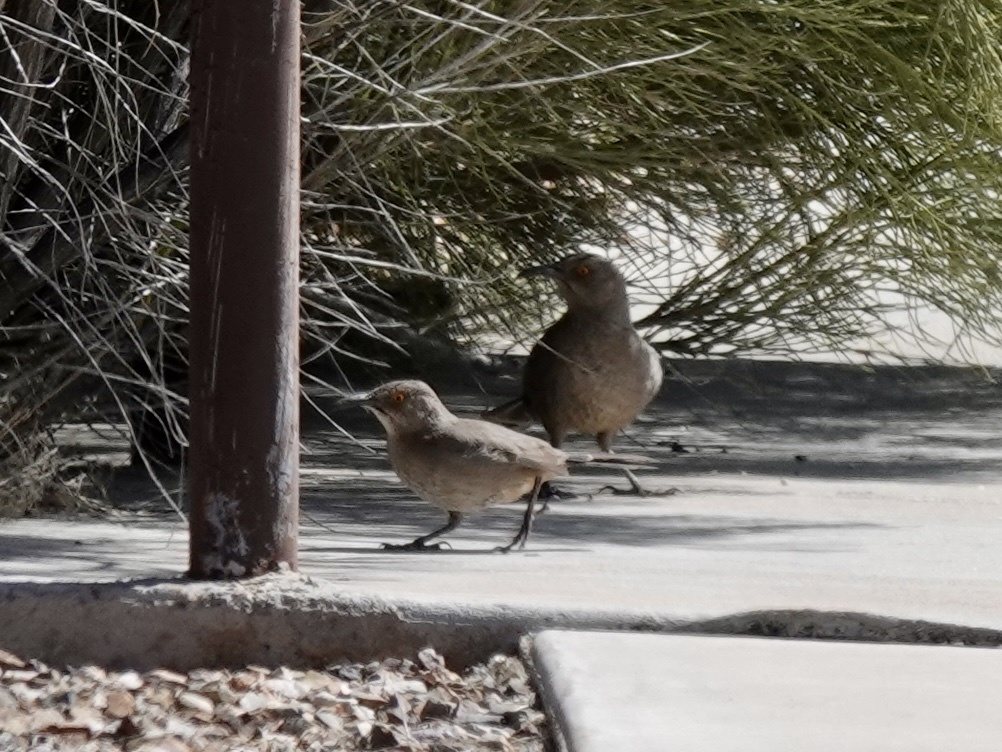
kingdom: Animalia
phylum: Chordata
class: Aves
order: Passeriformes
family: Mimidae
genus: Toxostoma
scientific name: Toxostoma curvirostre
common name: Curve-billed thrasher
